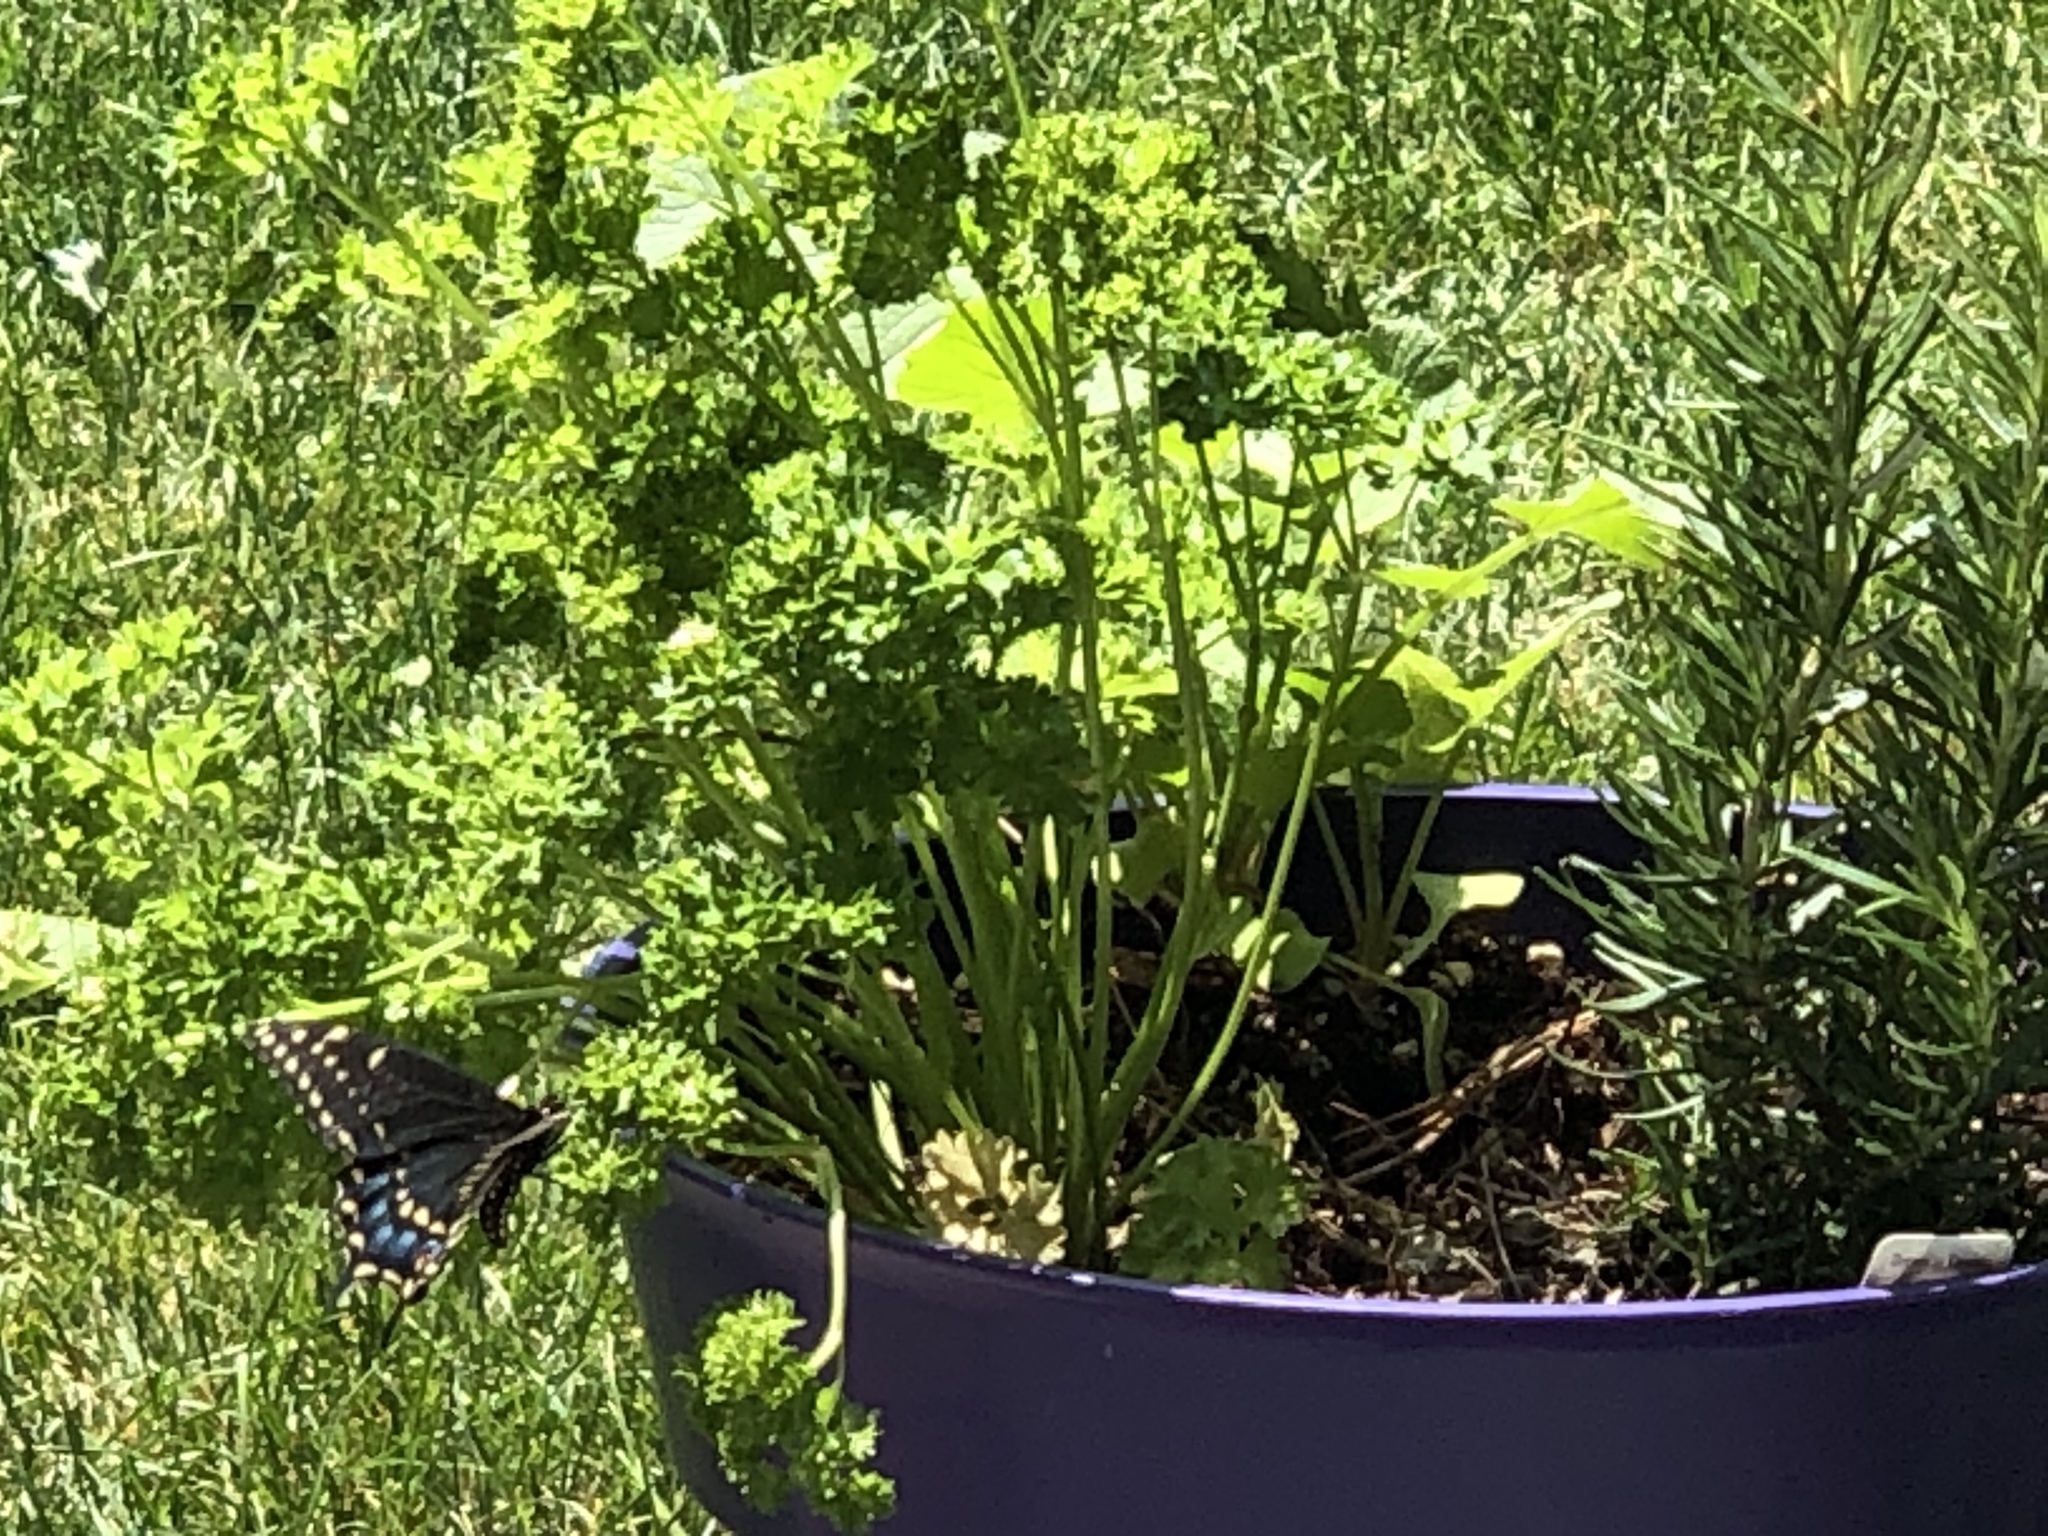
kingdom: Animalia
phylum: Arthropoda
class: Insecta
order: Lepidoptera
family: Papilionidae
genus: Papilio
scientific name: Papilio polyxenes
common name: Black swallowtail
